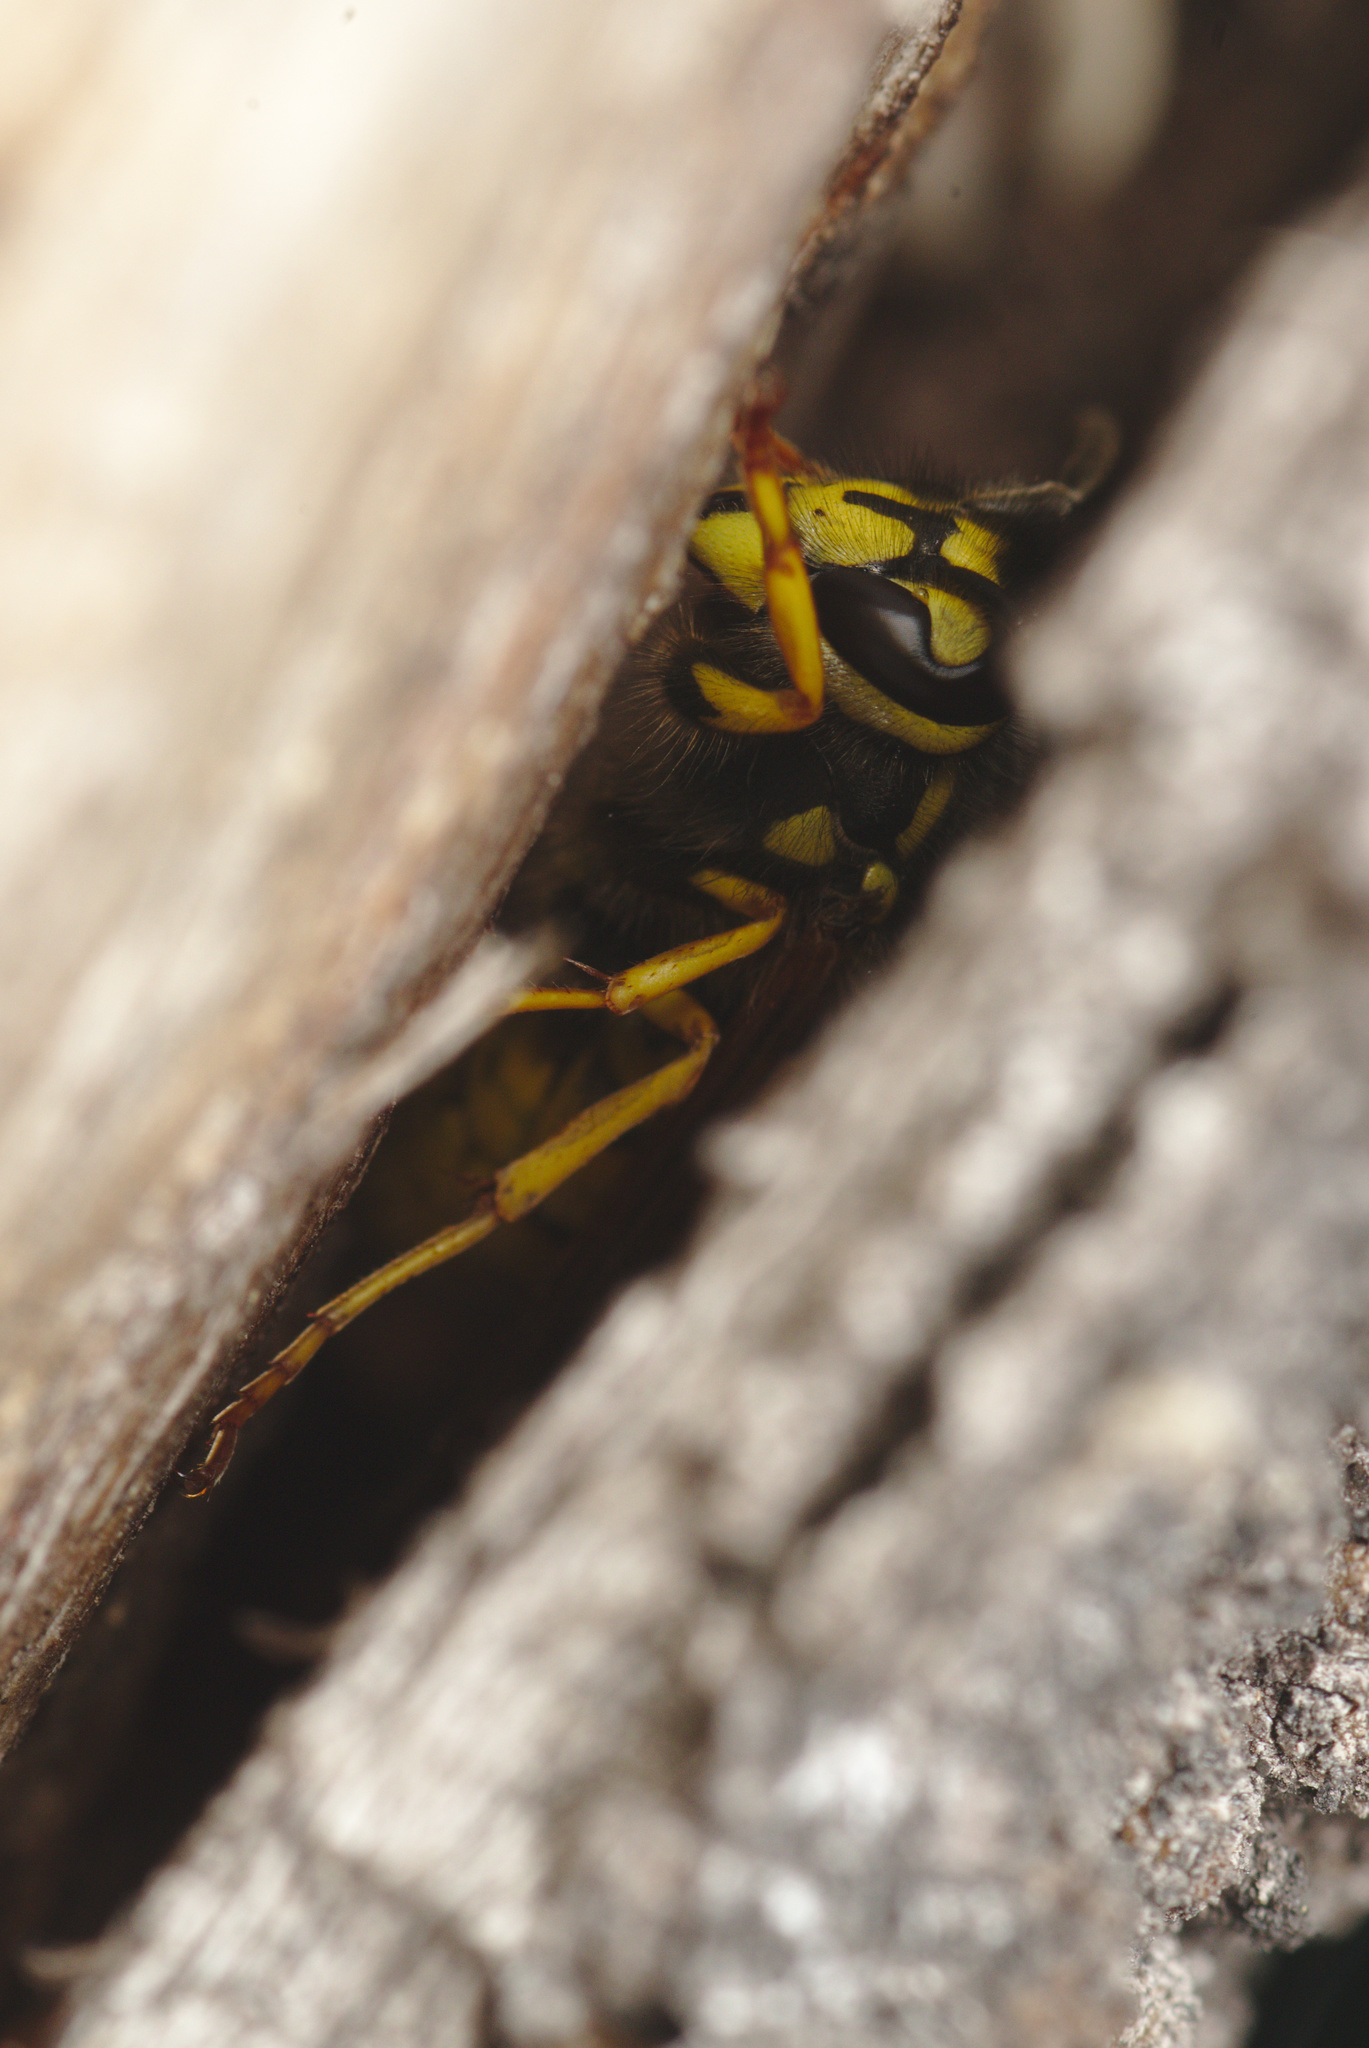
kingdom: Animalia
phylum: Arthropoda
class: Insecta
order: Hymenoptera
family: Vespidae
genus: Vespula
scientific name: Vespula germanica
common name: German wasp
